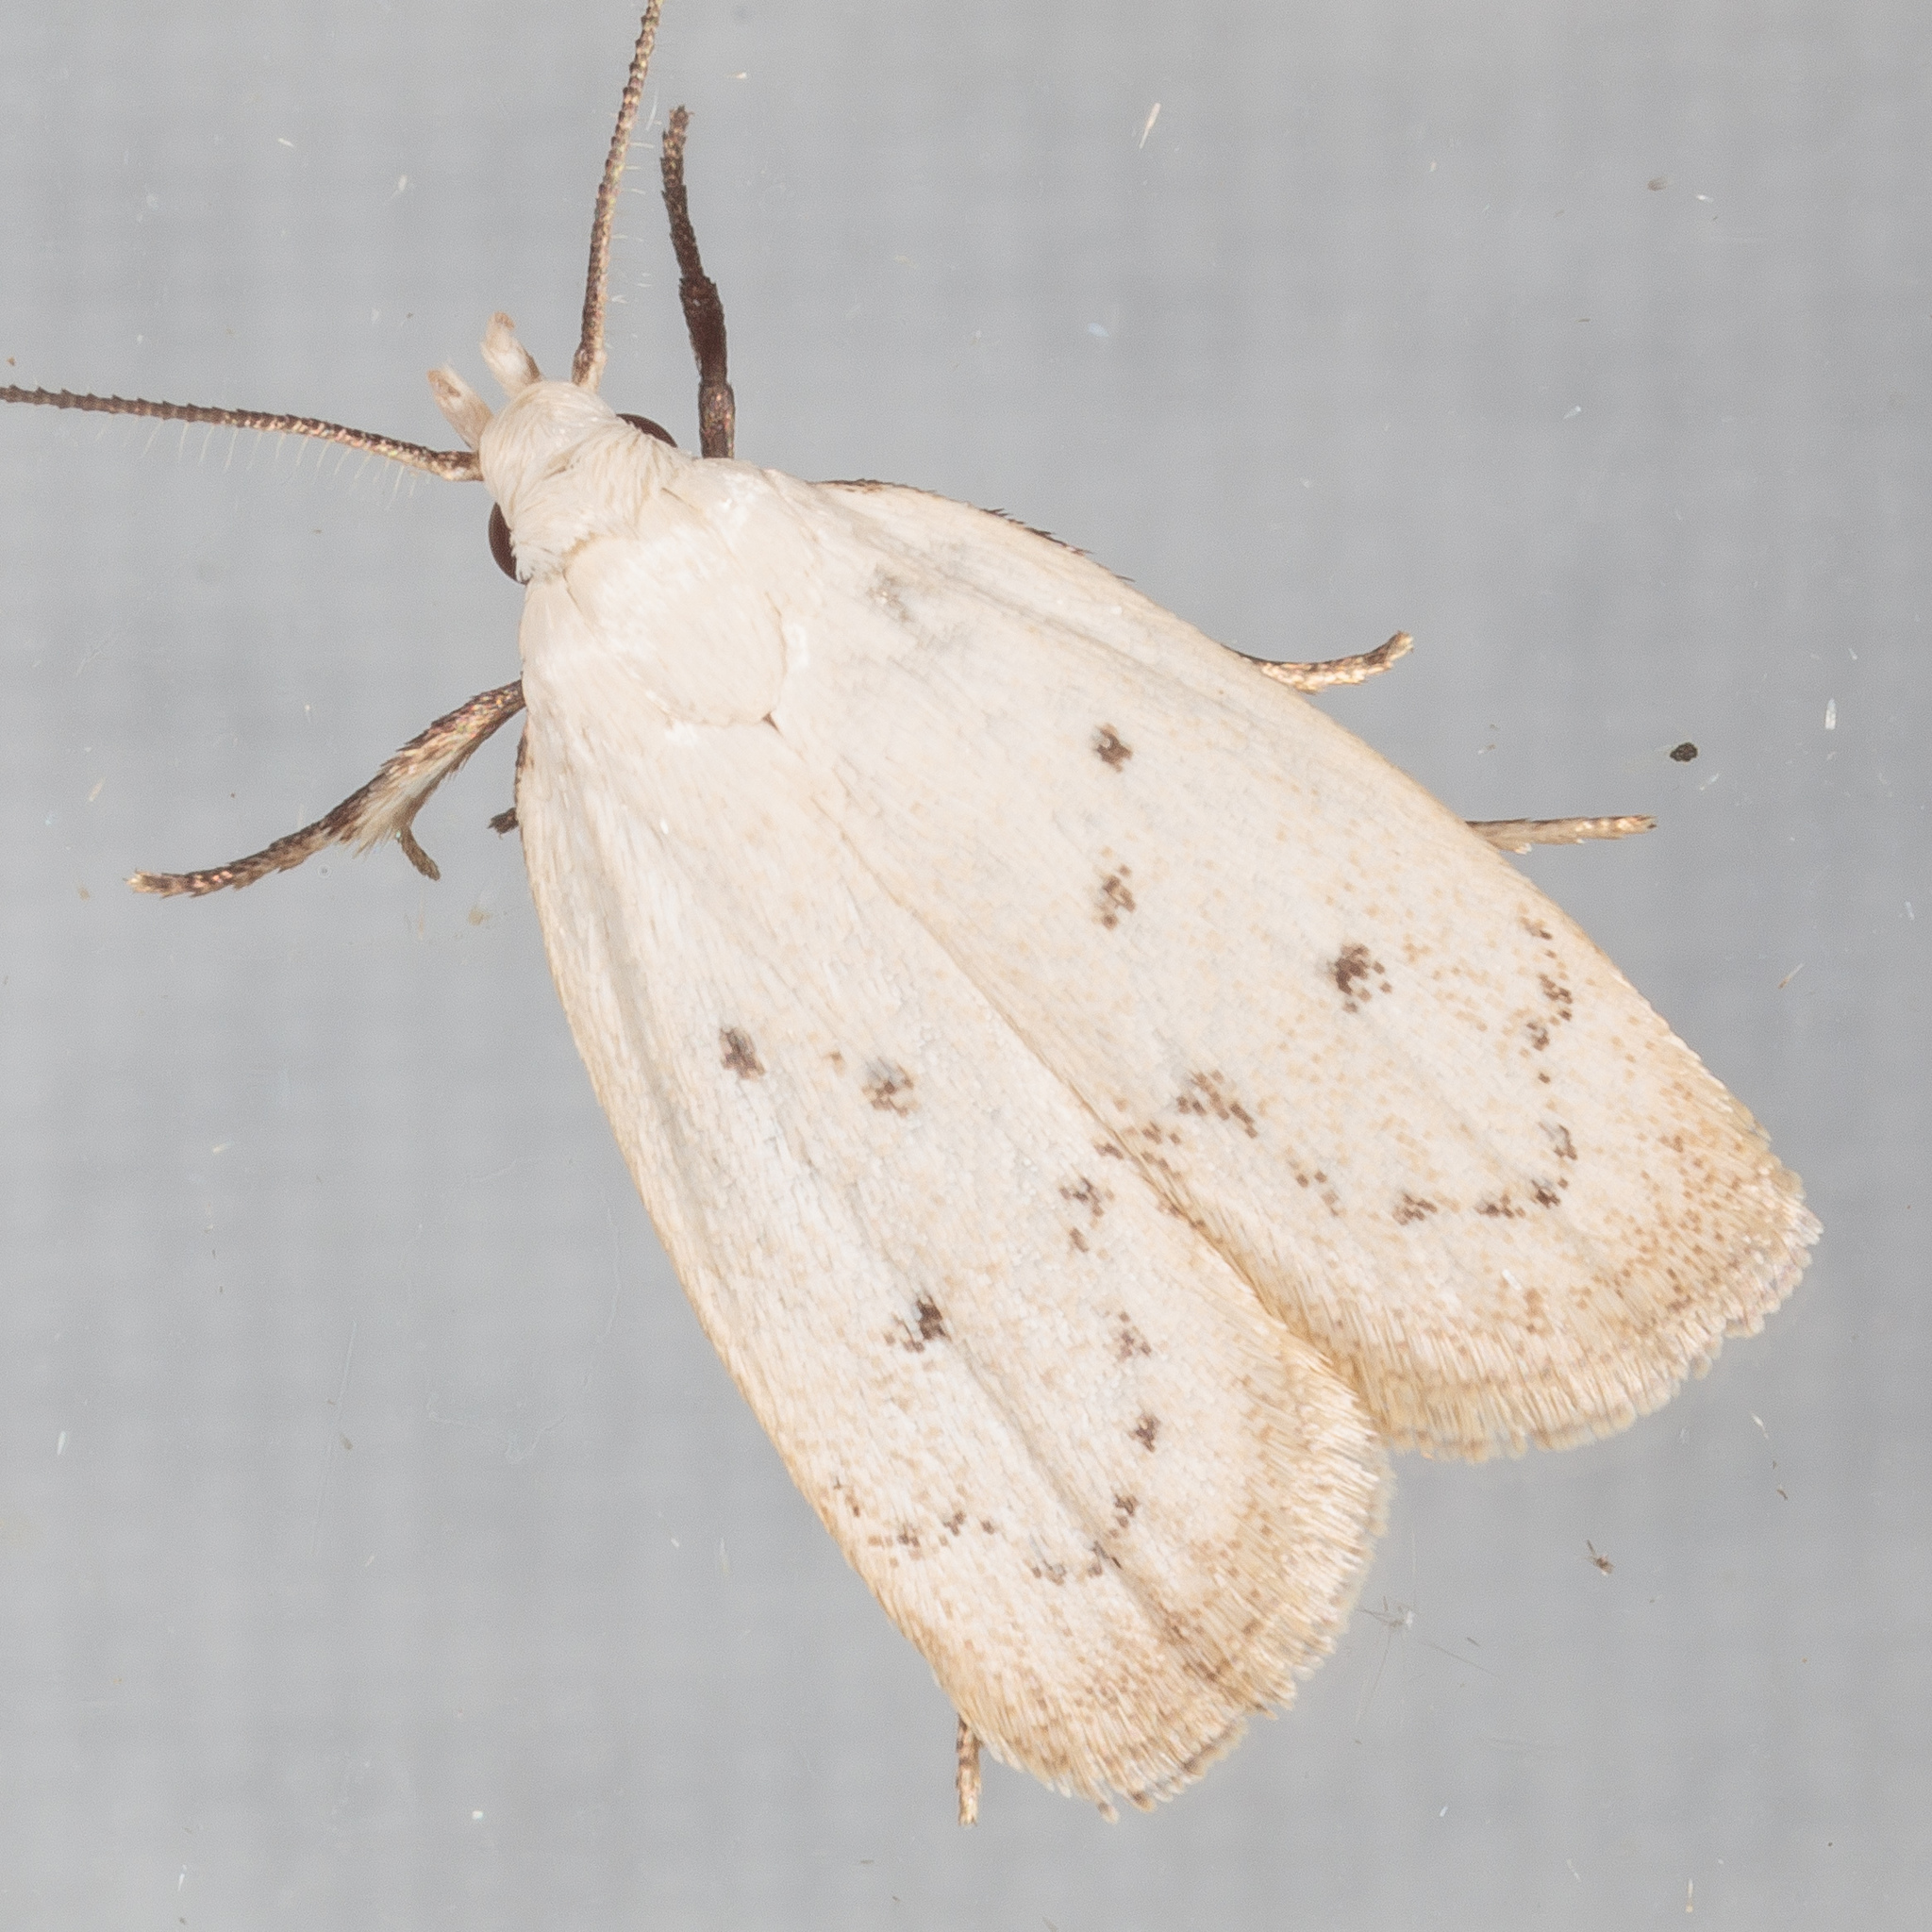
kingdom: Animalia
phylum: Arthropoda
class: Insecta
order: Lepidoptera
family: Oecophoridae
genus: Inga
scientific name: Inga cretacea
